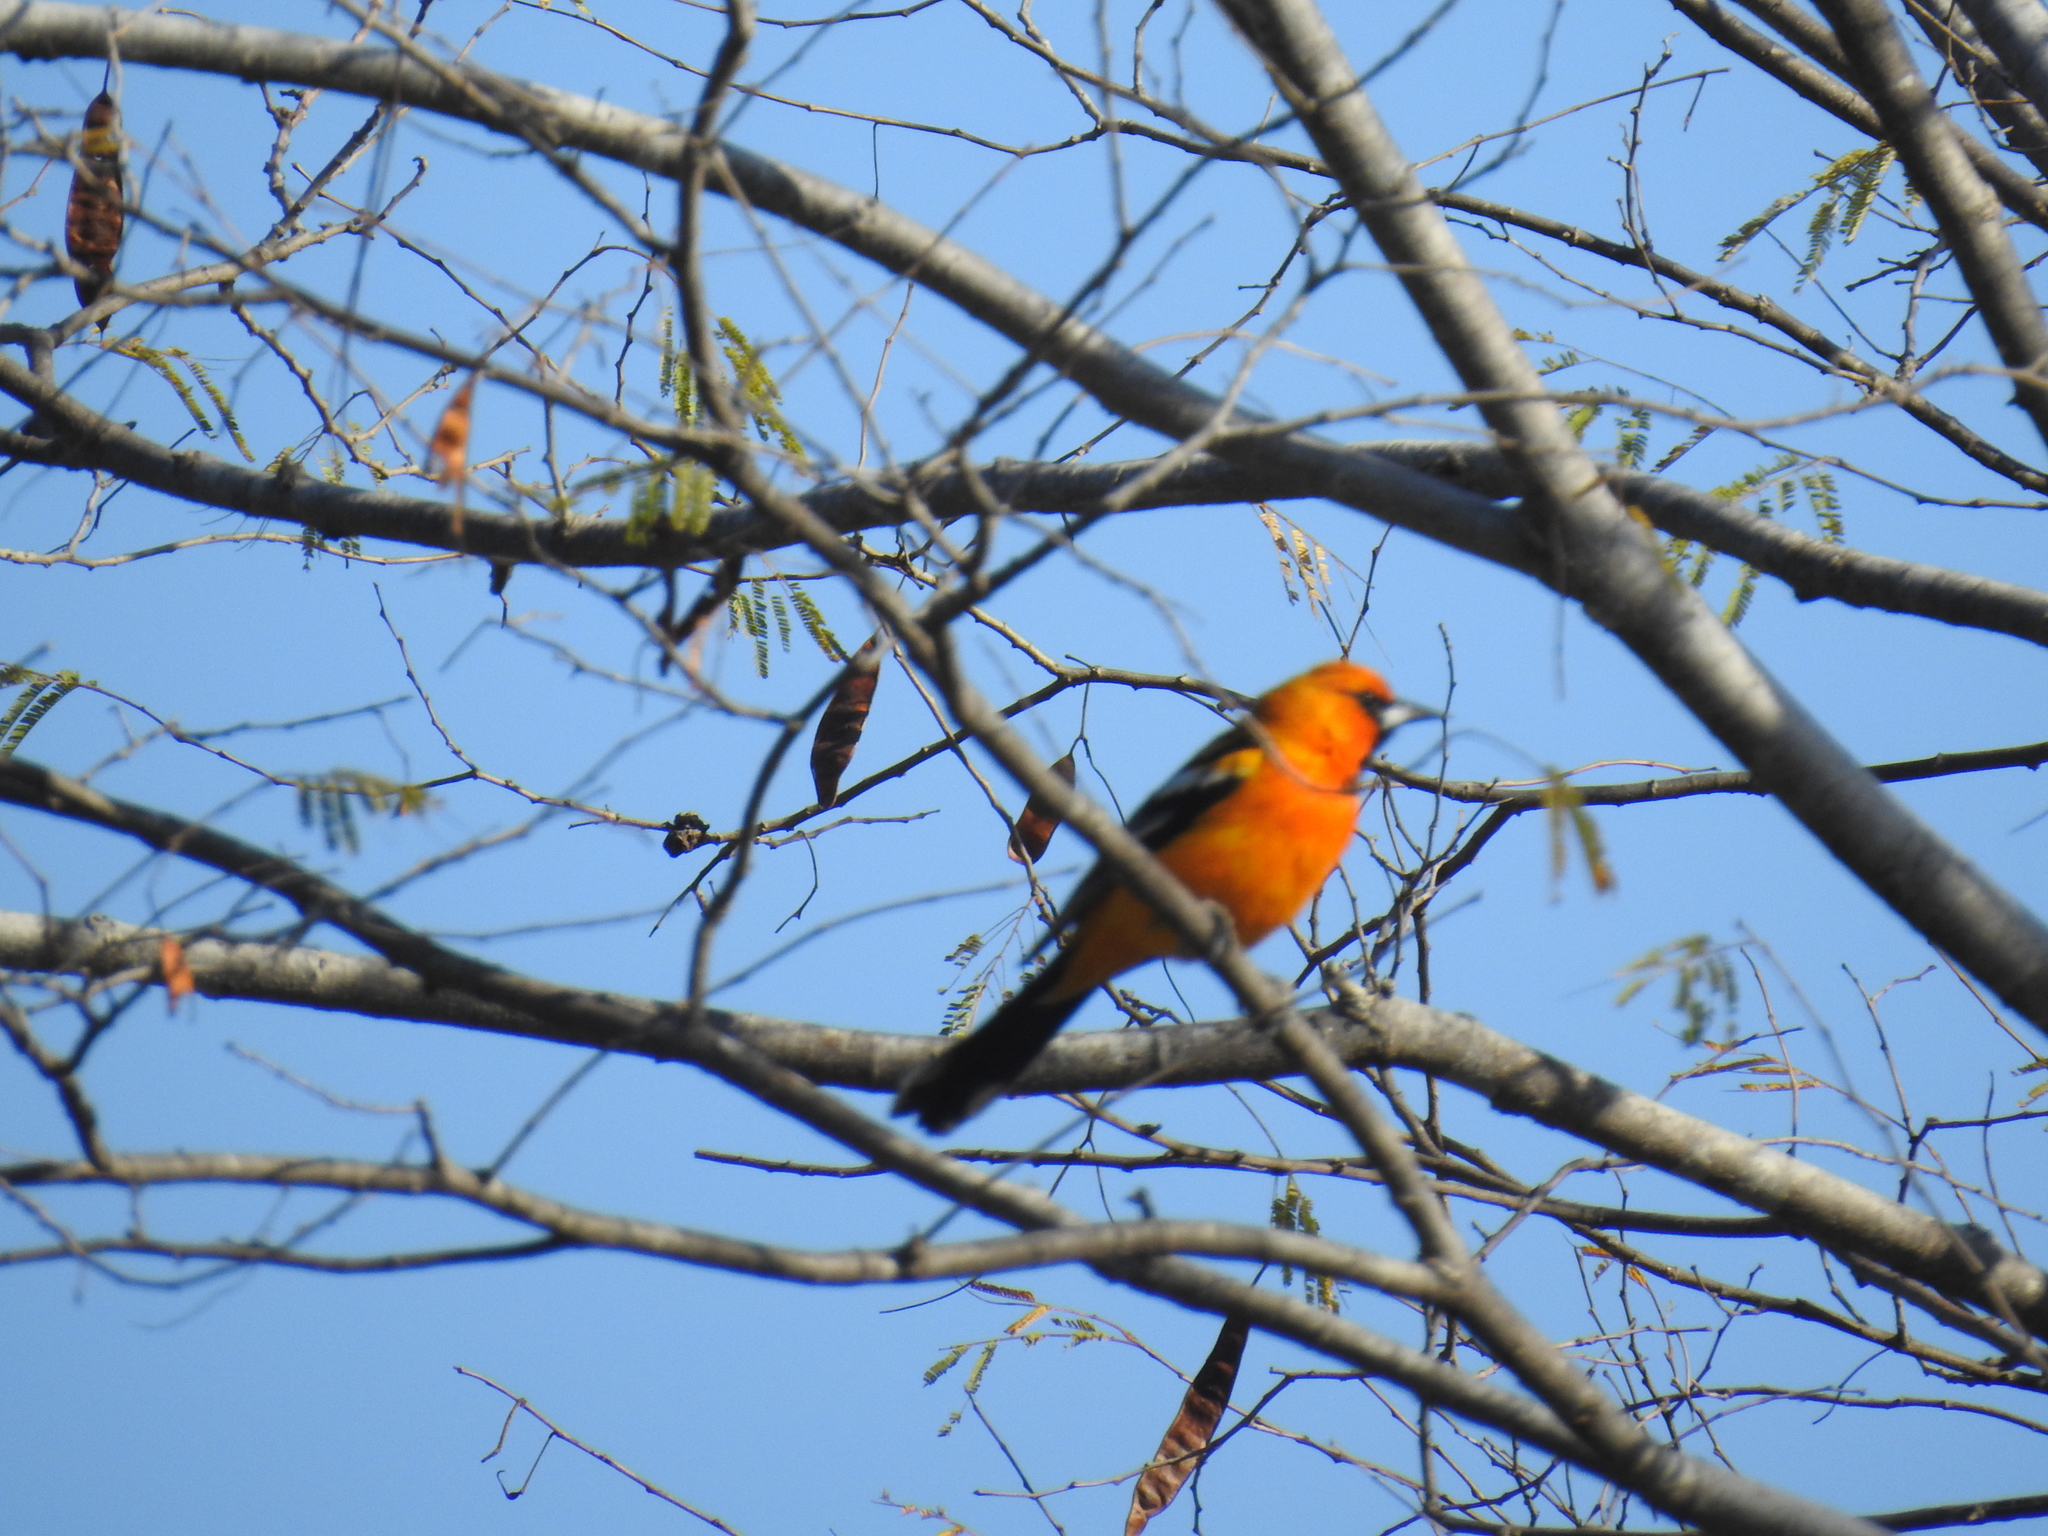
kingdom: Animalia
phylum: Chordata
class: Aves
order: Passeriformes
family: Icteridae
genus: Icterus
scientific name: Icterus pustulatus
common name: Streak-backed oriole
